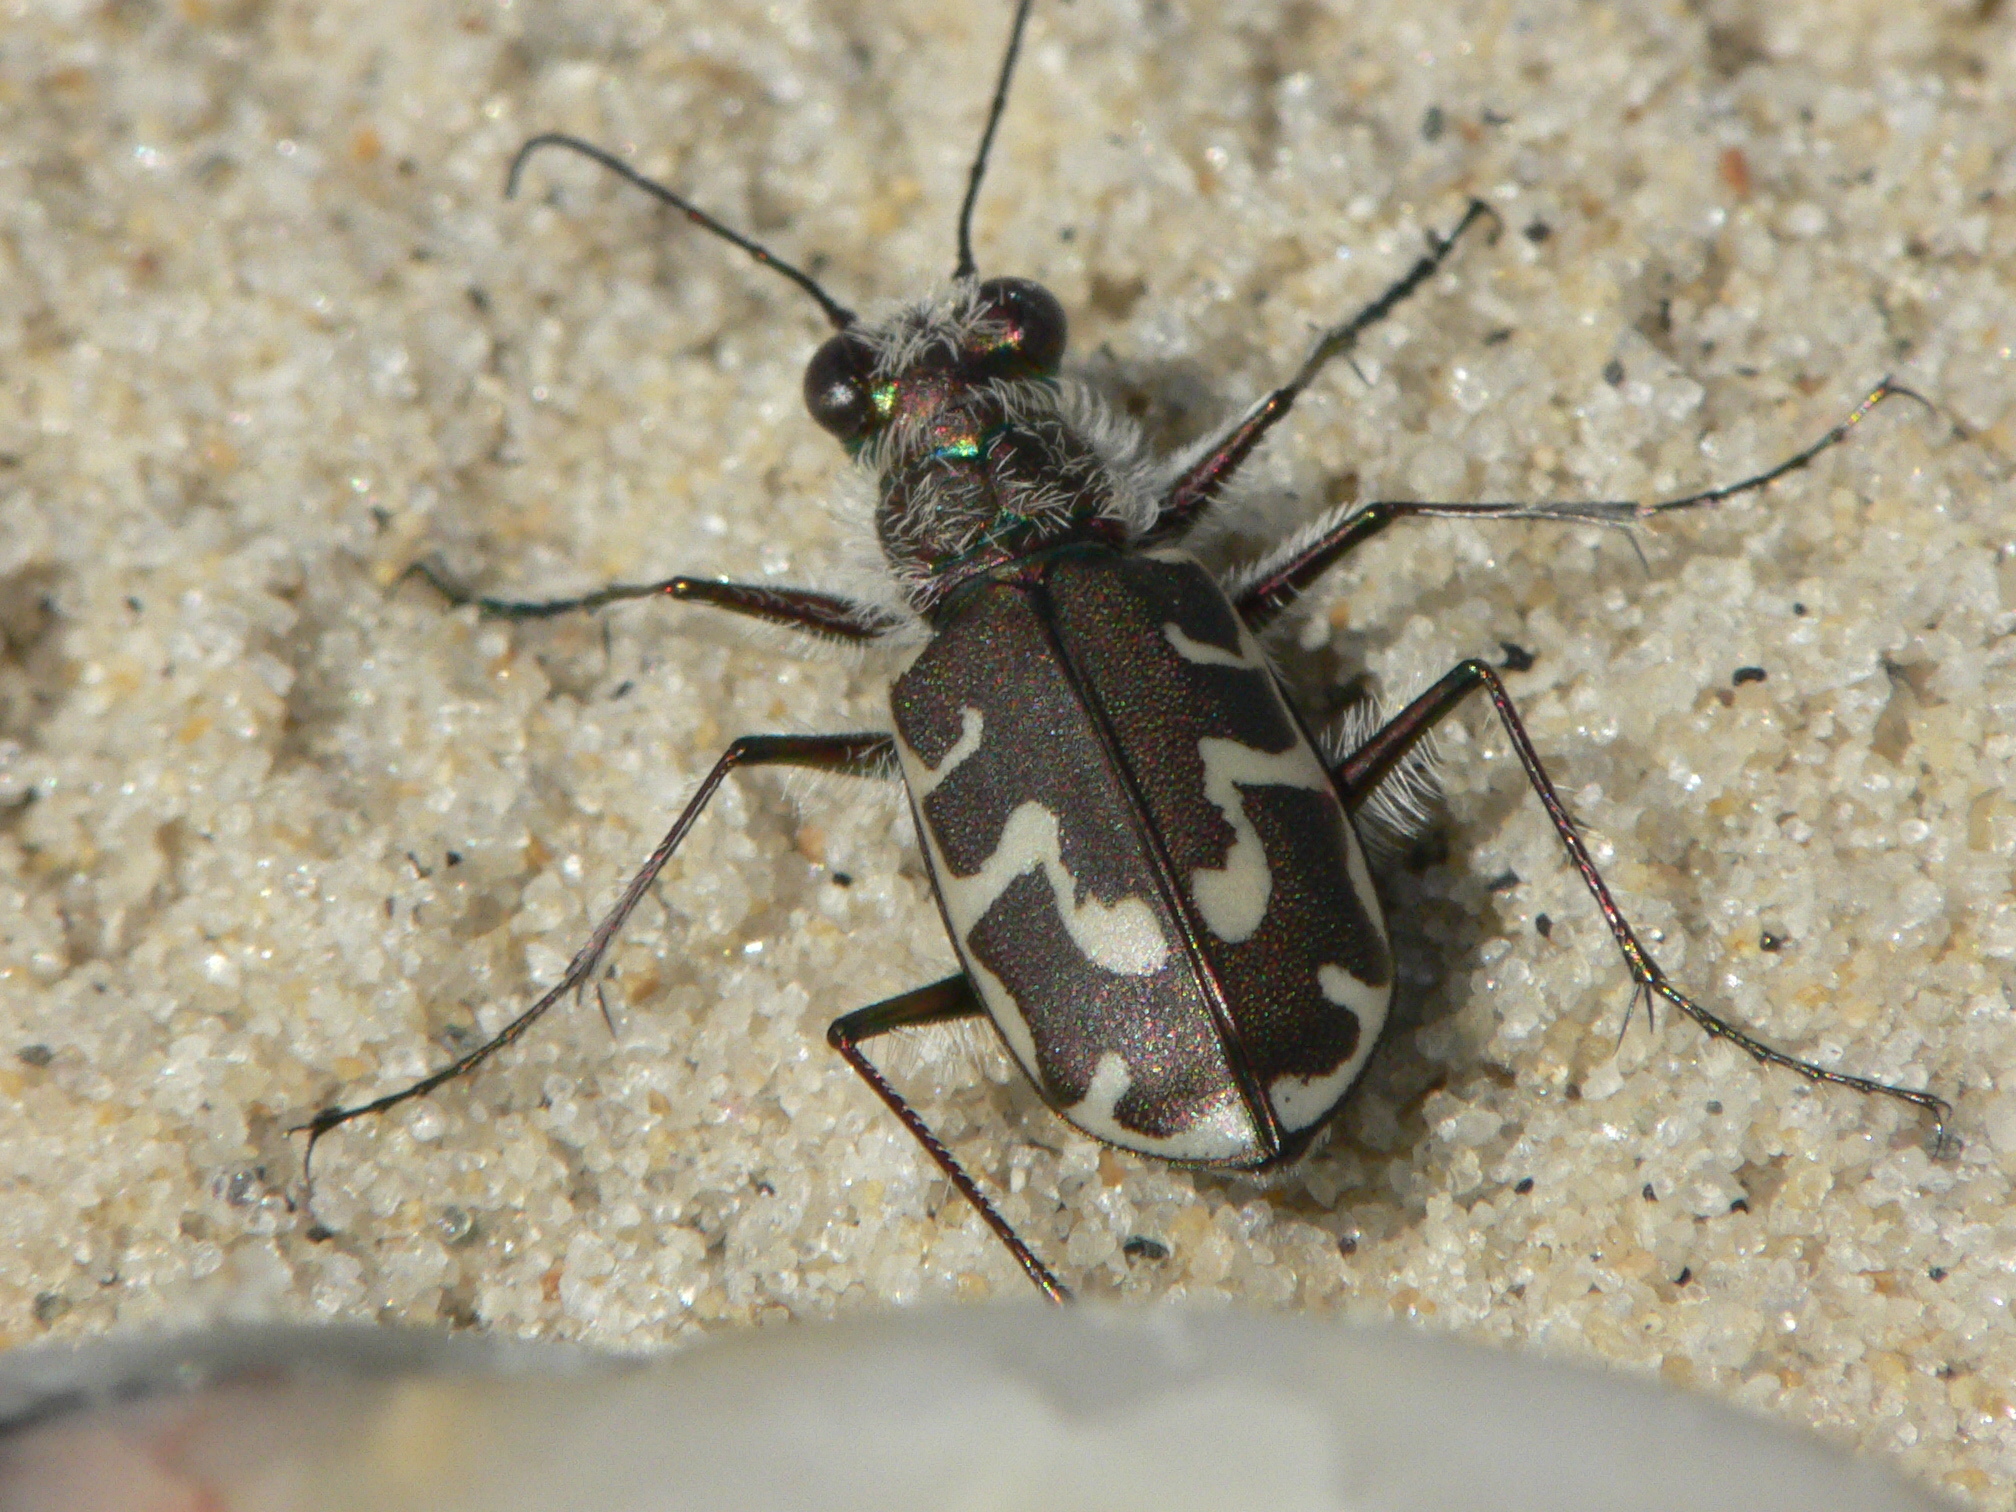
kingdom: Animalia
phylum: Arthropoda
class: Insecta
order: Coleoptera
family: Carabidae
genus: Cicindela
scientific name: Cicindela hirticollis
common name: Hairy-necked tiger beetle
